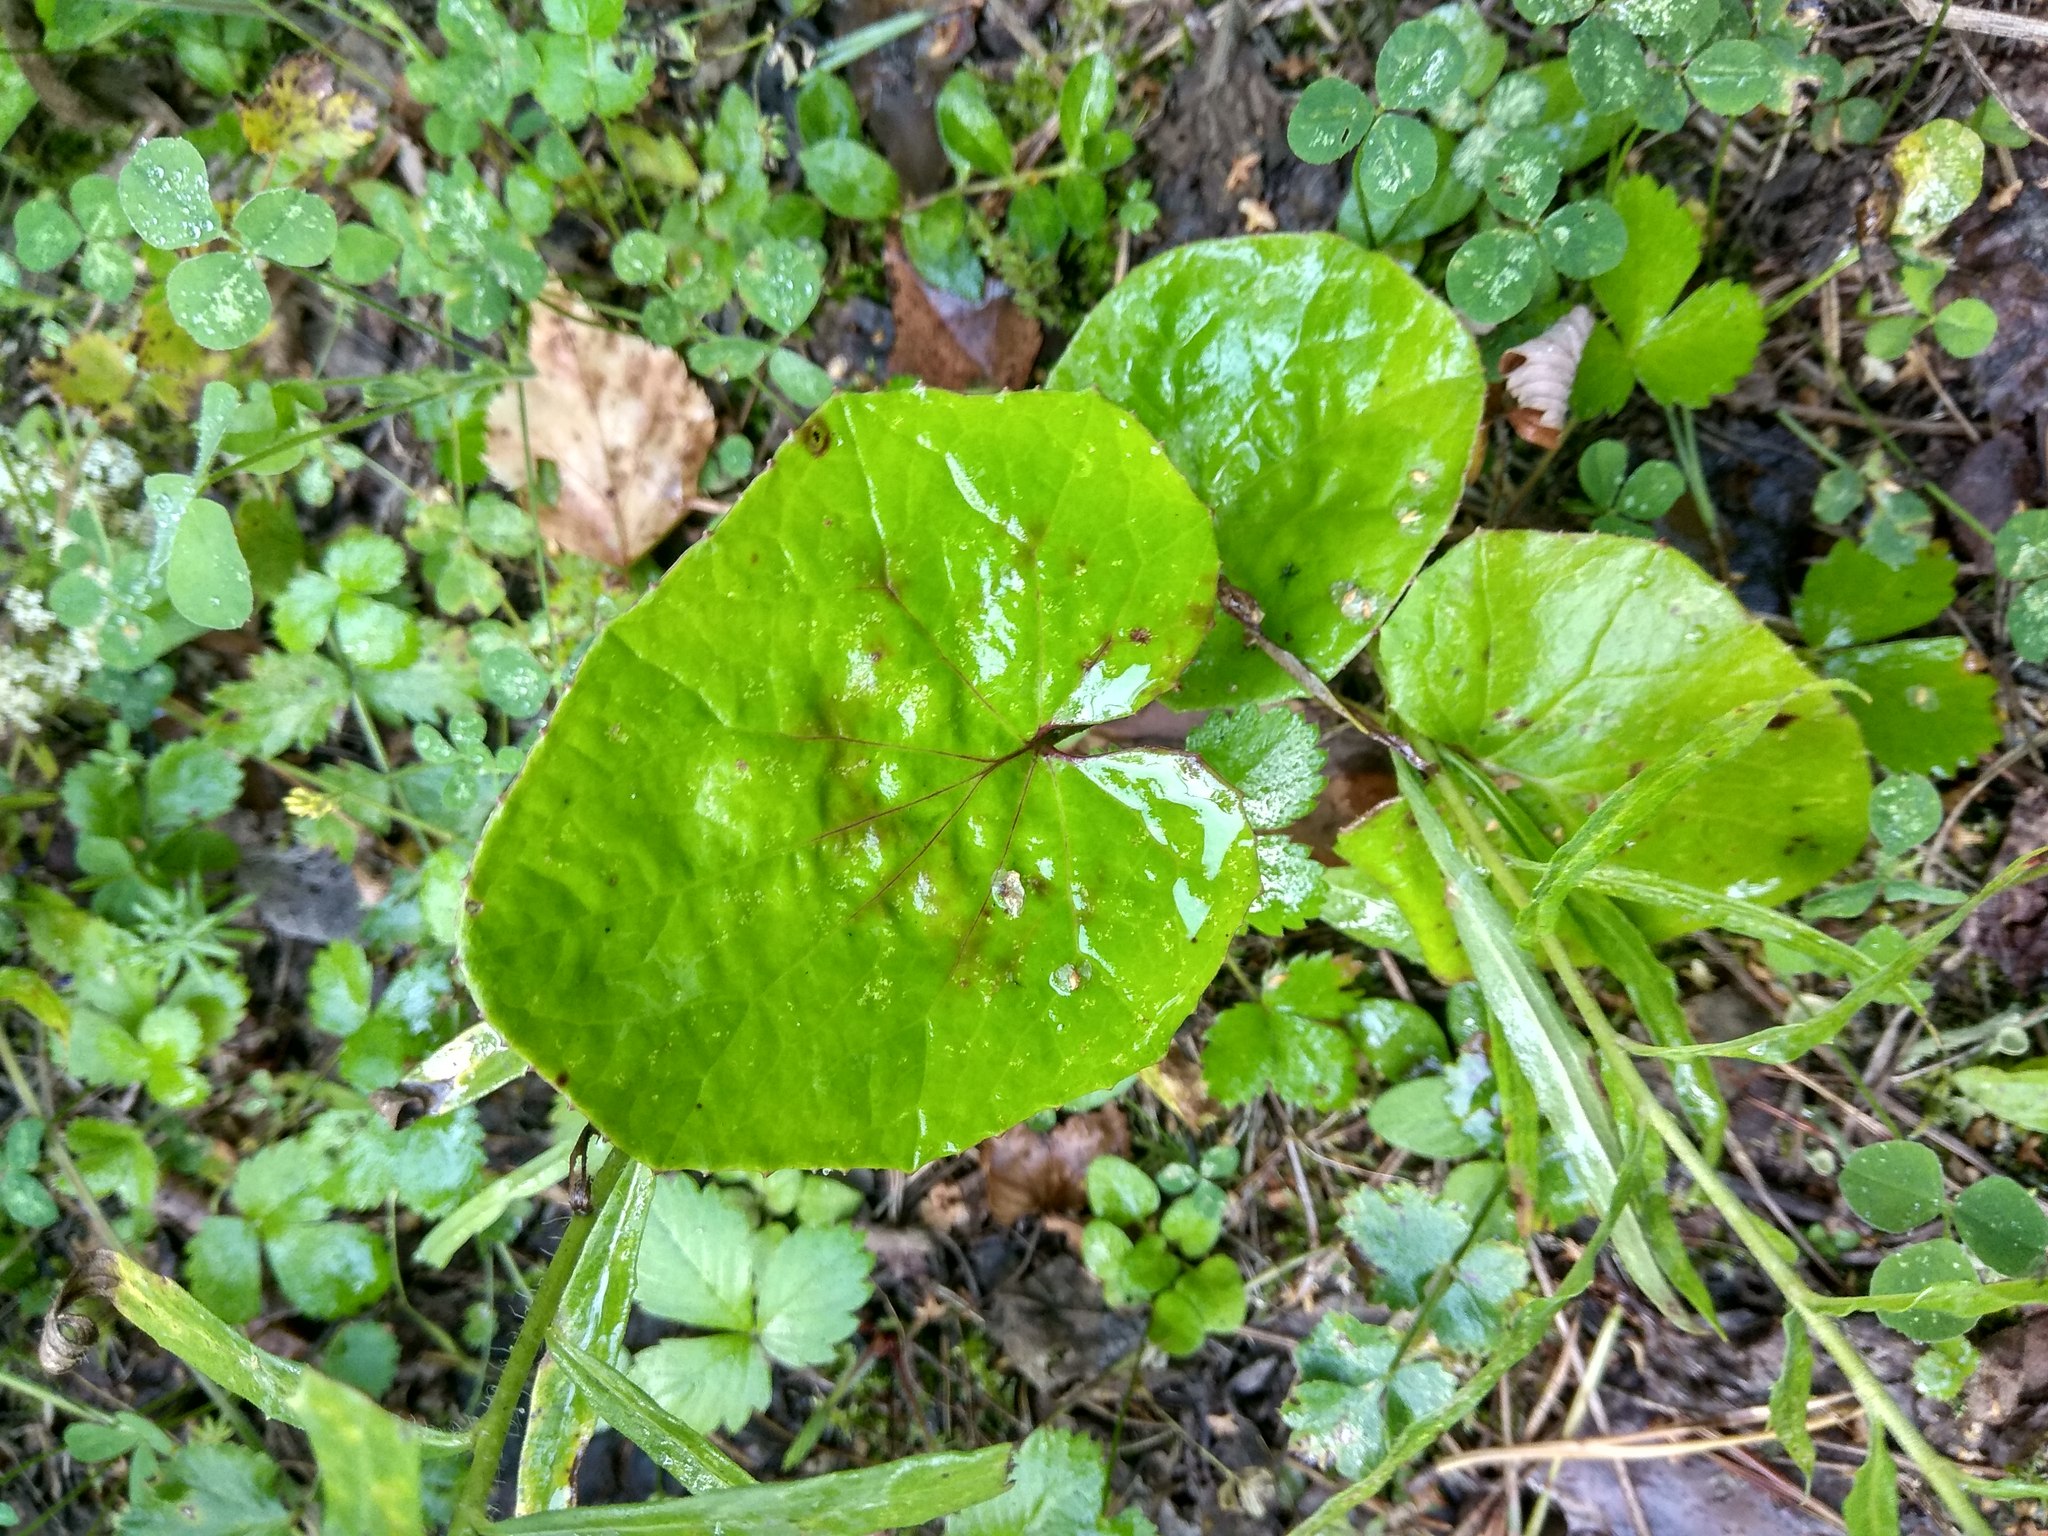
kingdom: Plantae
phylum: Tracheophyta
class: Magnoliopsida
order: Asterales
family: Asteraceae
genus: Tussilago
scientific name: Tussilago farfara
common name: Coltsfoot
